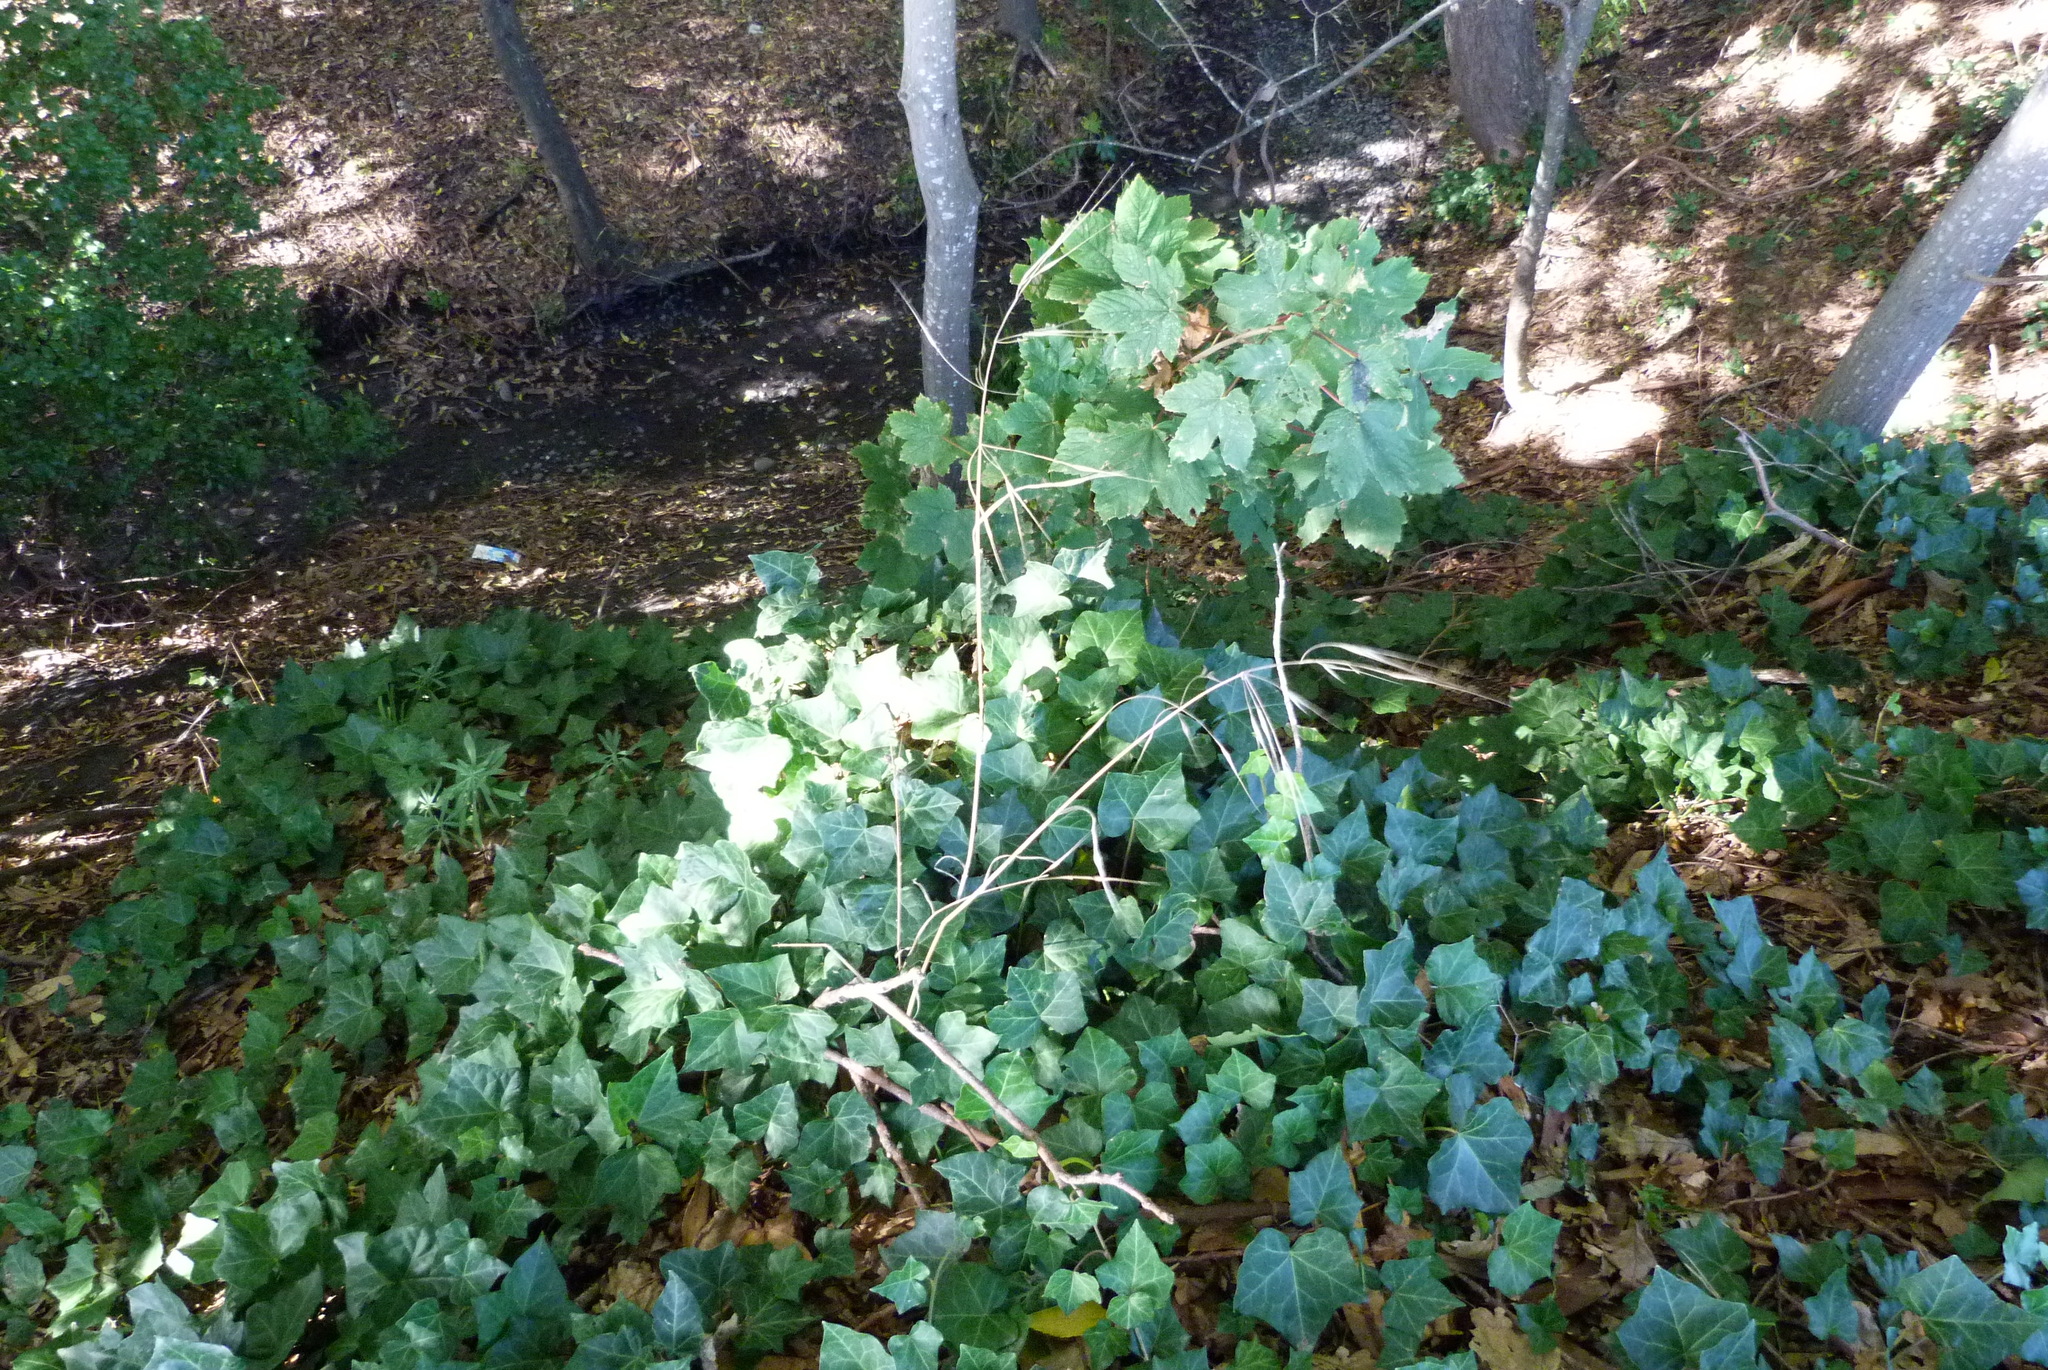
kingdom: Plantae
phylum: Tracheophyta
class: Liliopsida
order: Poales
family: Poaceae
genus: Bromus
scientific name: Bromus diandrus
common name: Ripgut brome
